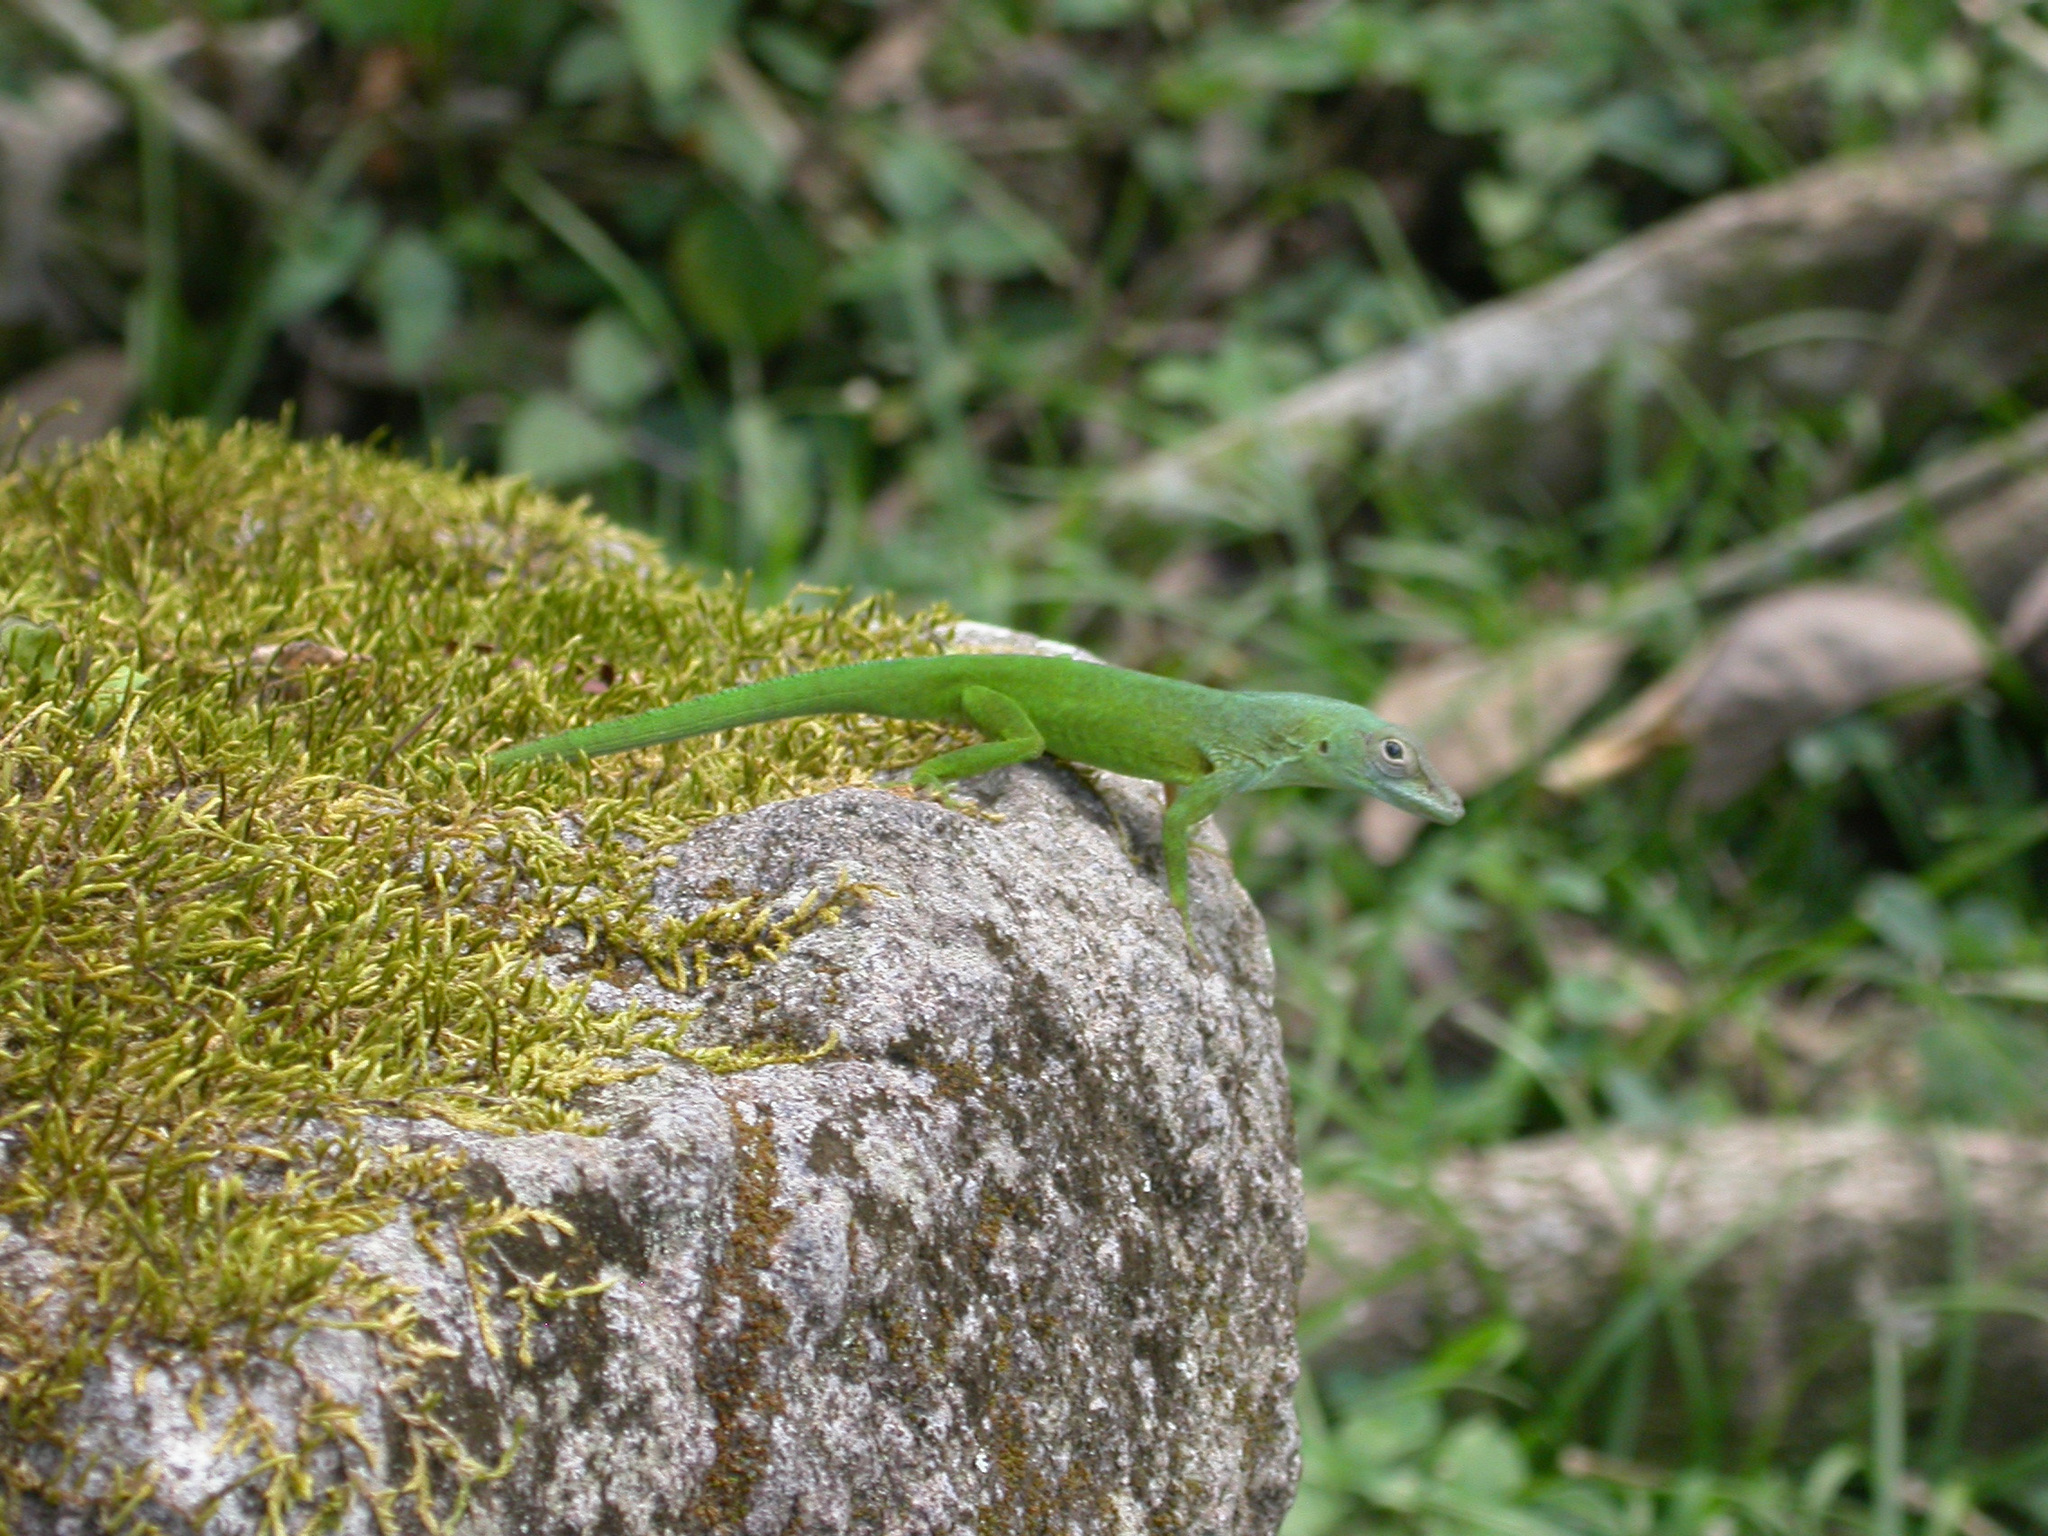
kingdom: Animalia
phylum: Chordata
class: Squamata
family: Dactyloidae
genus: Anolis
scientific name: Anolis marmoratus
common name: Guadeloupe anole
